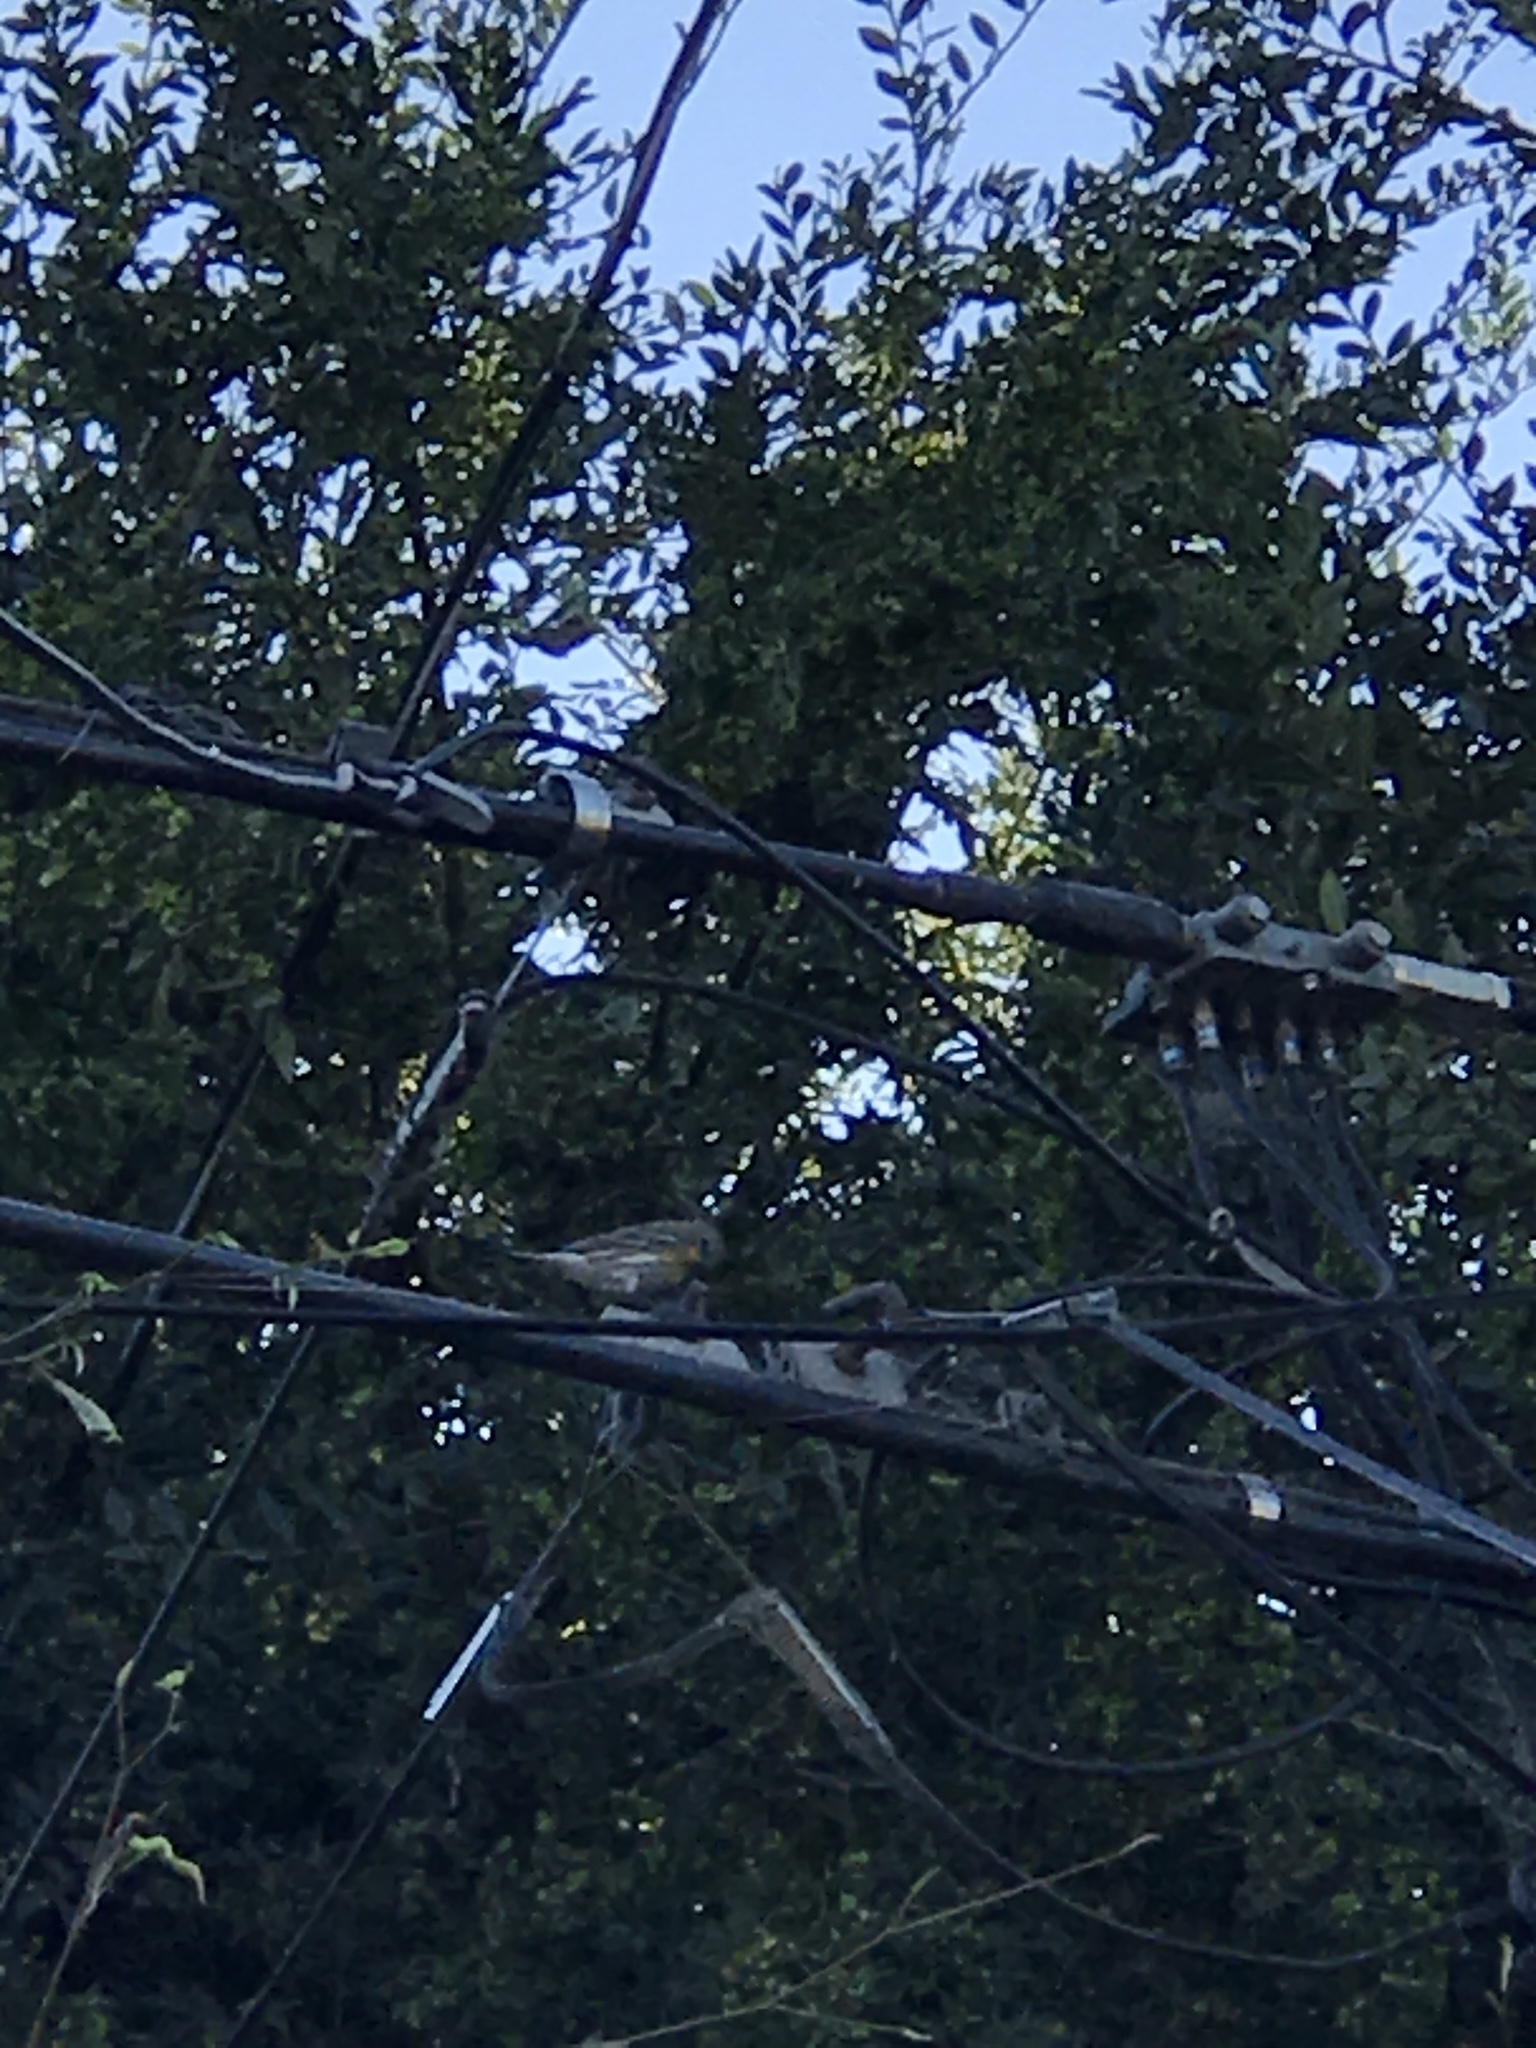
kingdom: Animalia
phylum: Chordata
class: Aves
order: Passeriformes
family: Parulidae
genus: Setophaga
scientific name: Setophaga auduboni
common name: Audubon's warbler
